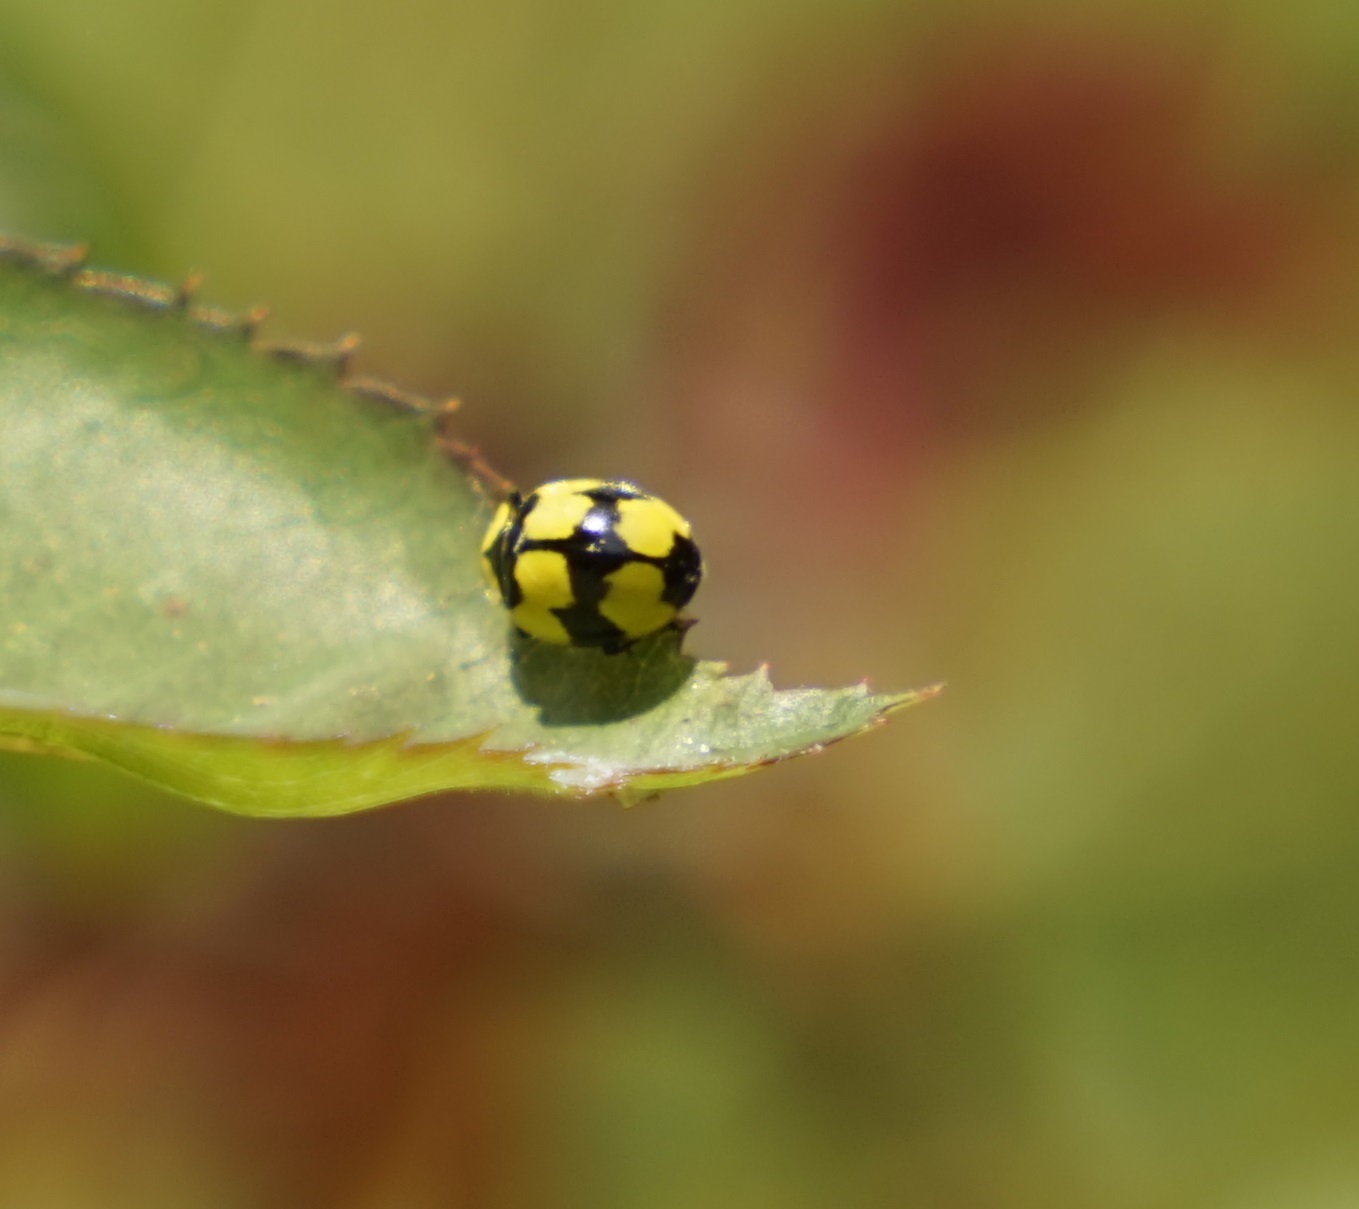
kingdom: Animalia
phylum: Arthropoda
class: Insecta
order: Coleoptera
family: Coccinellidae
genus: Illeis
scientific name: Illeis galbula
